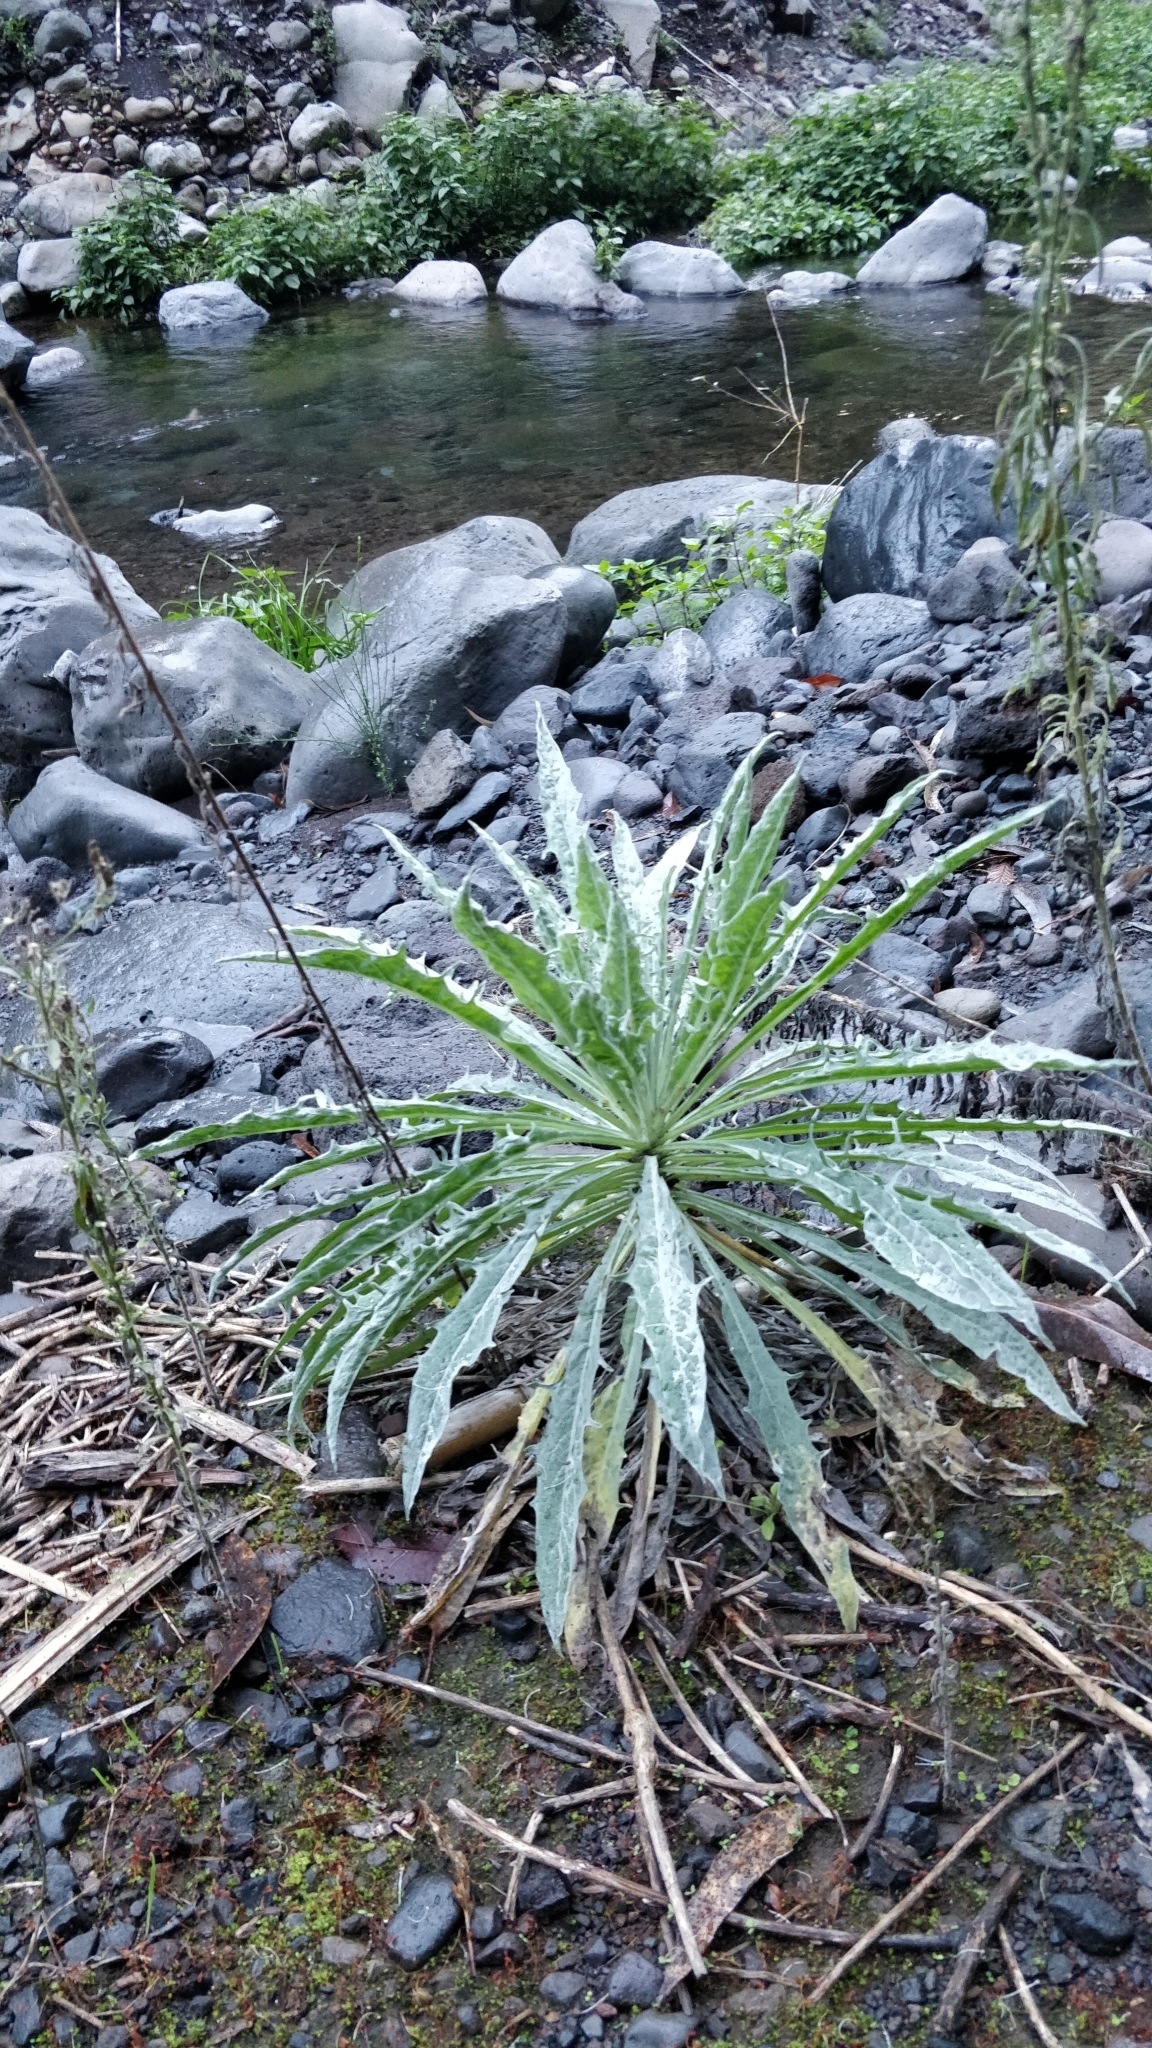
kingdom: Plantae
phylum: Tracheophyta
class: Magnoliopsida
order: Asterales
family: Asteraceae
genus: Andryala
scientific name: Andryala glandulosa
